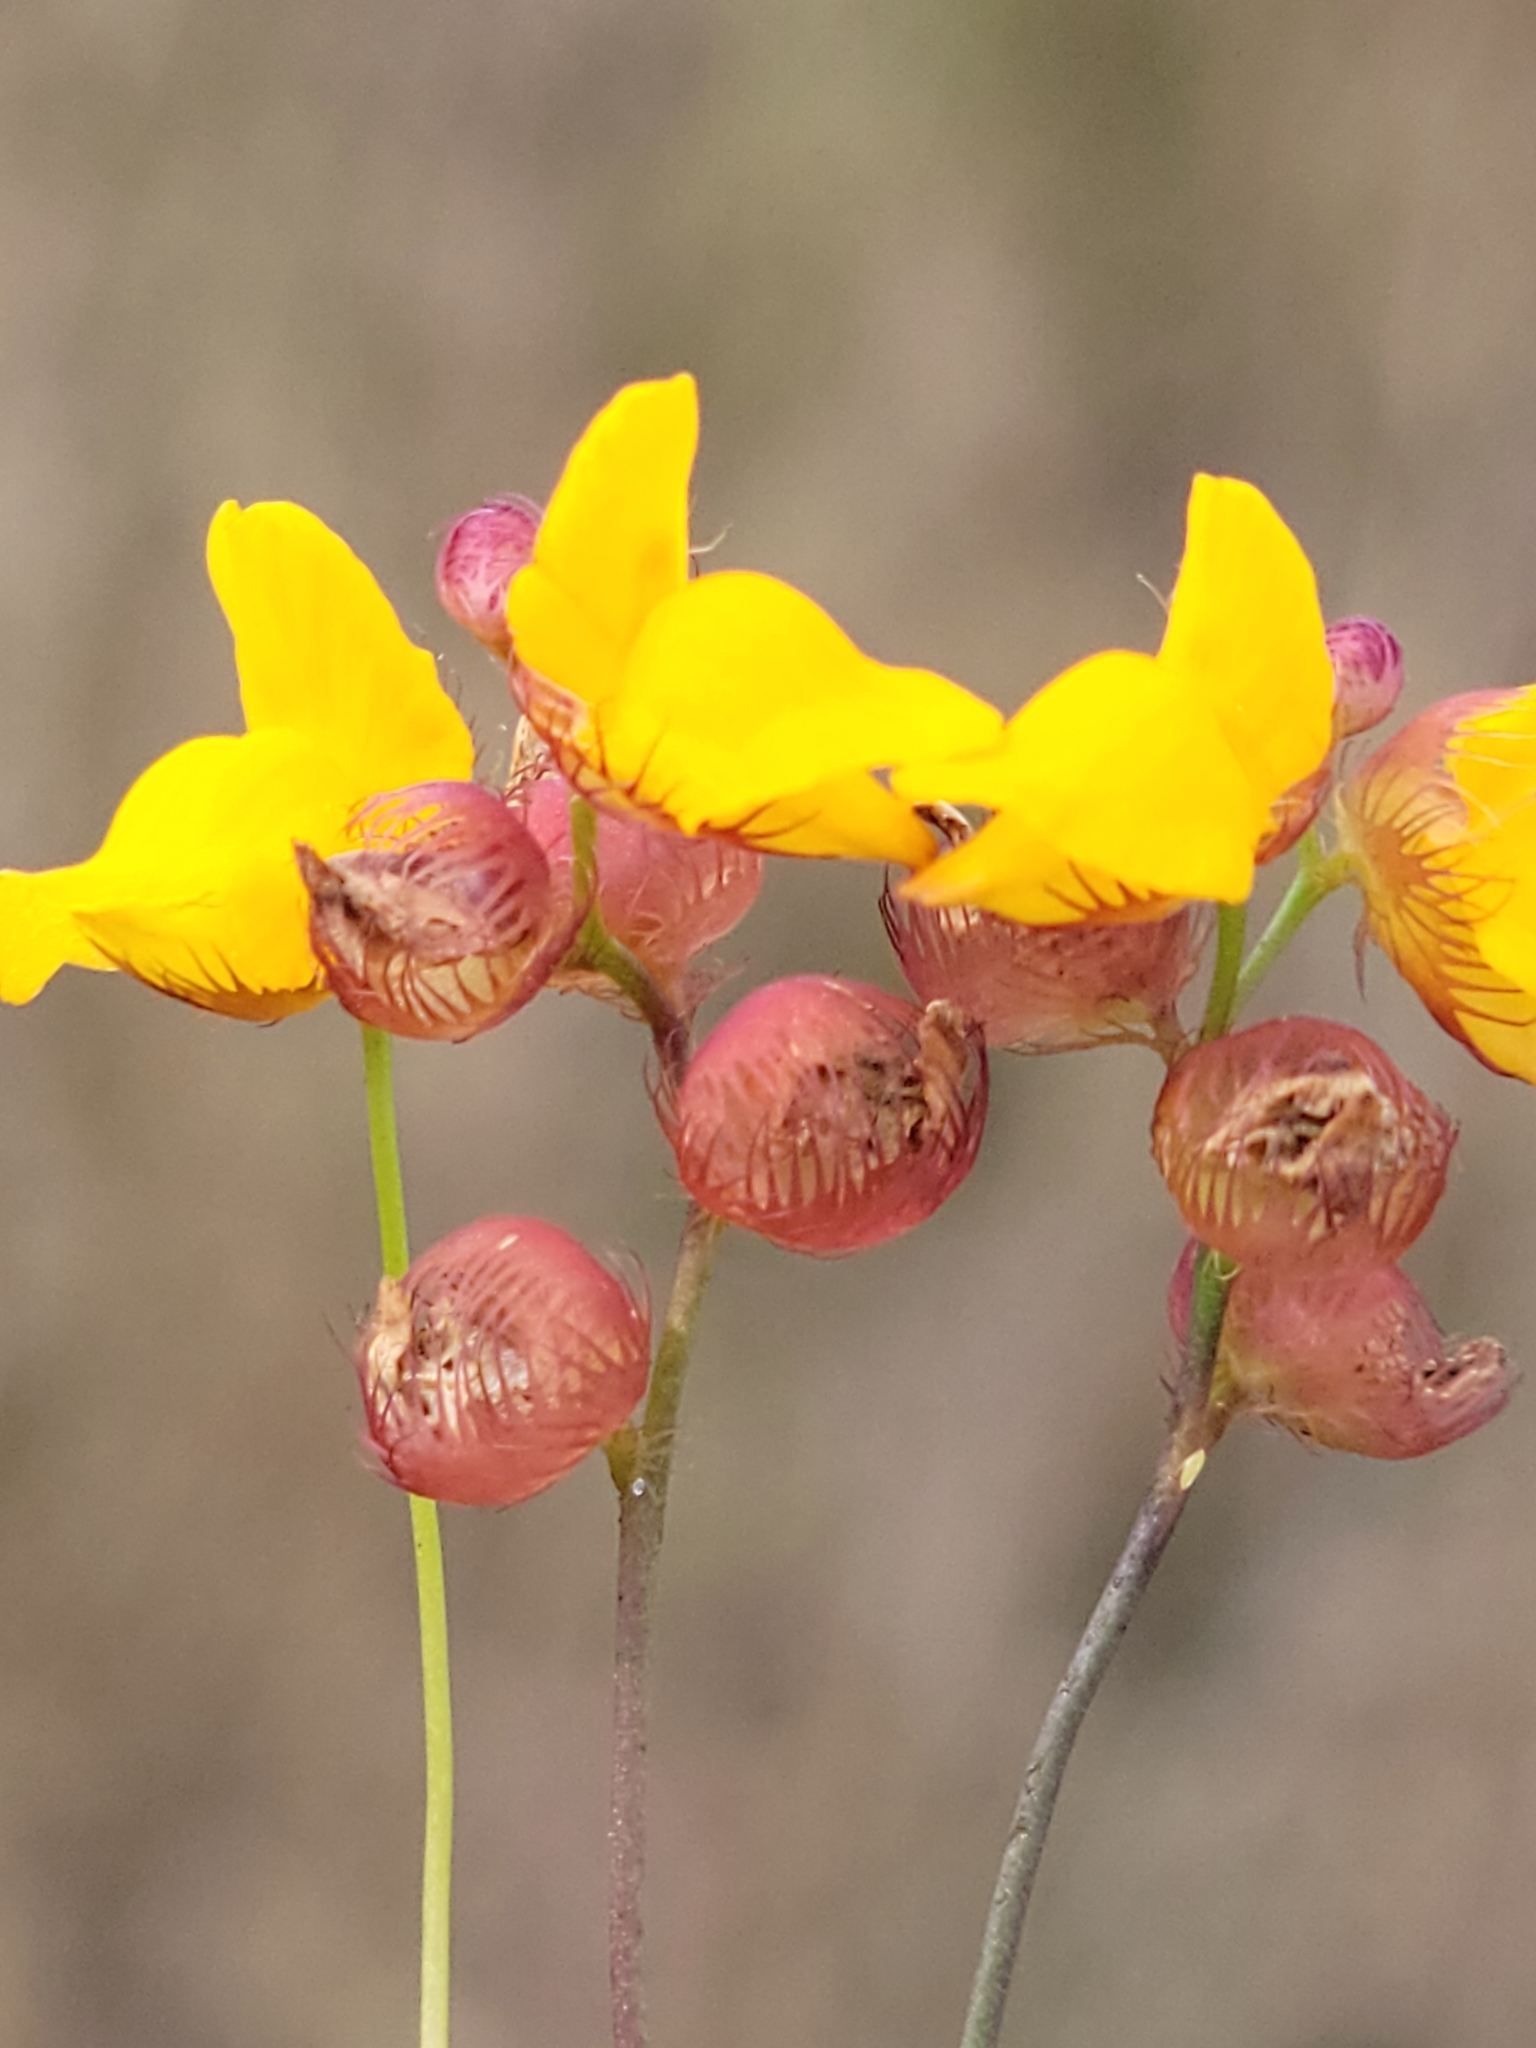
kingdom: Plantae
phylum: Tracheophyta
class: Magnoliopsida
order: Lamiales
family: Lentibulariaceae
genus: Utricularia
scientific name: Utricularia simulans
